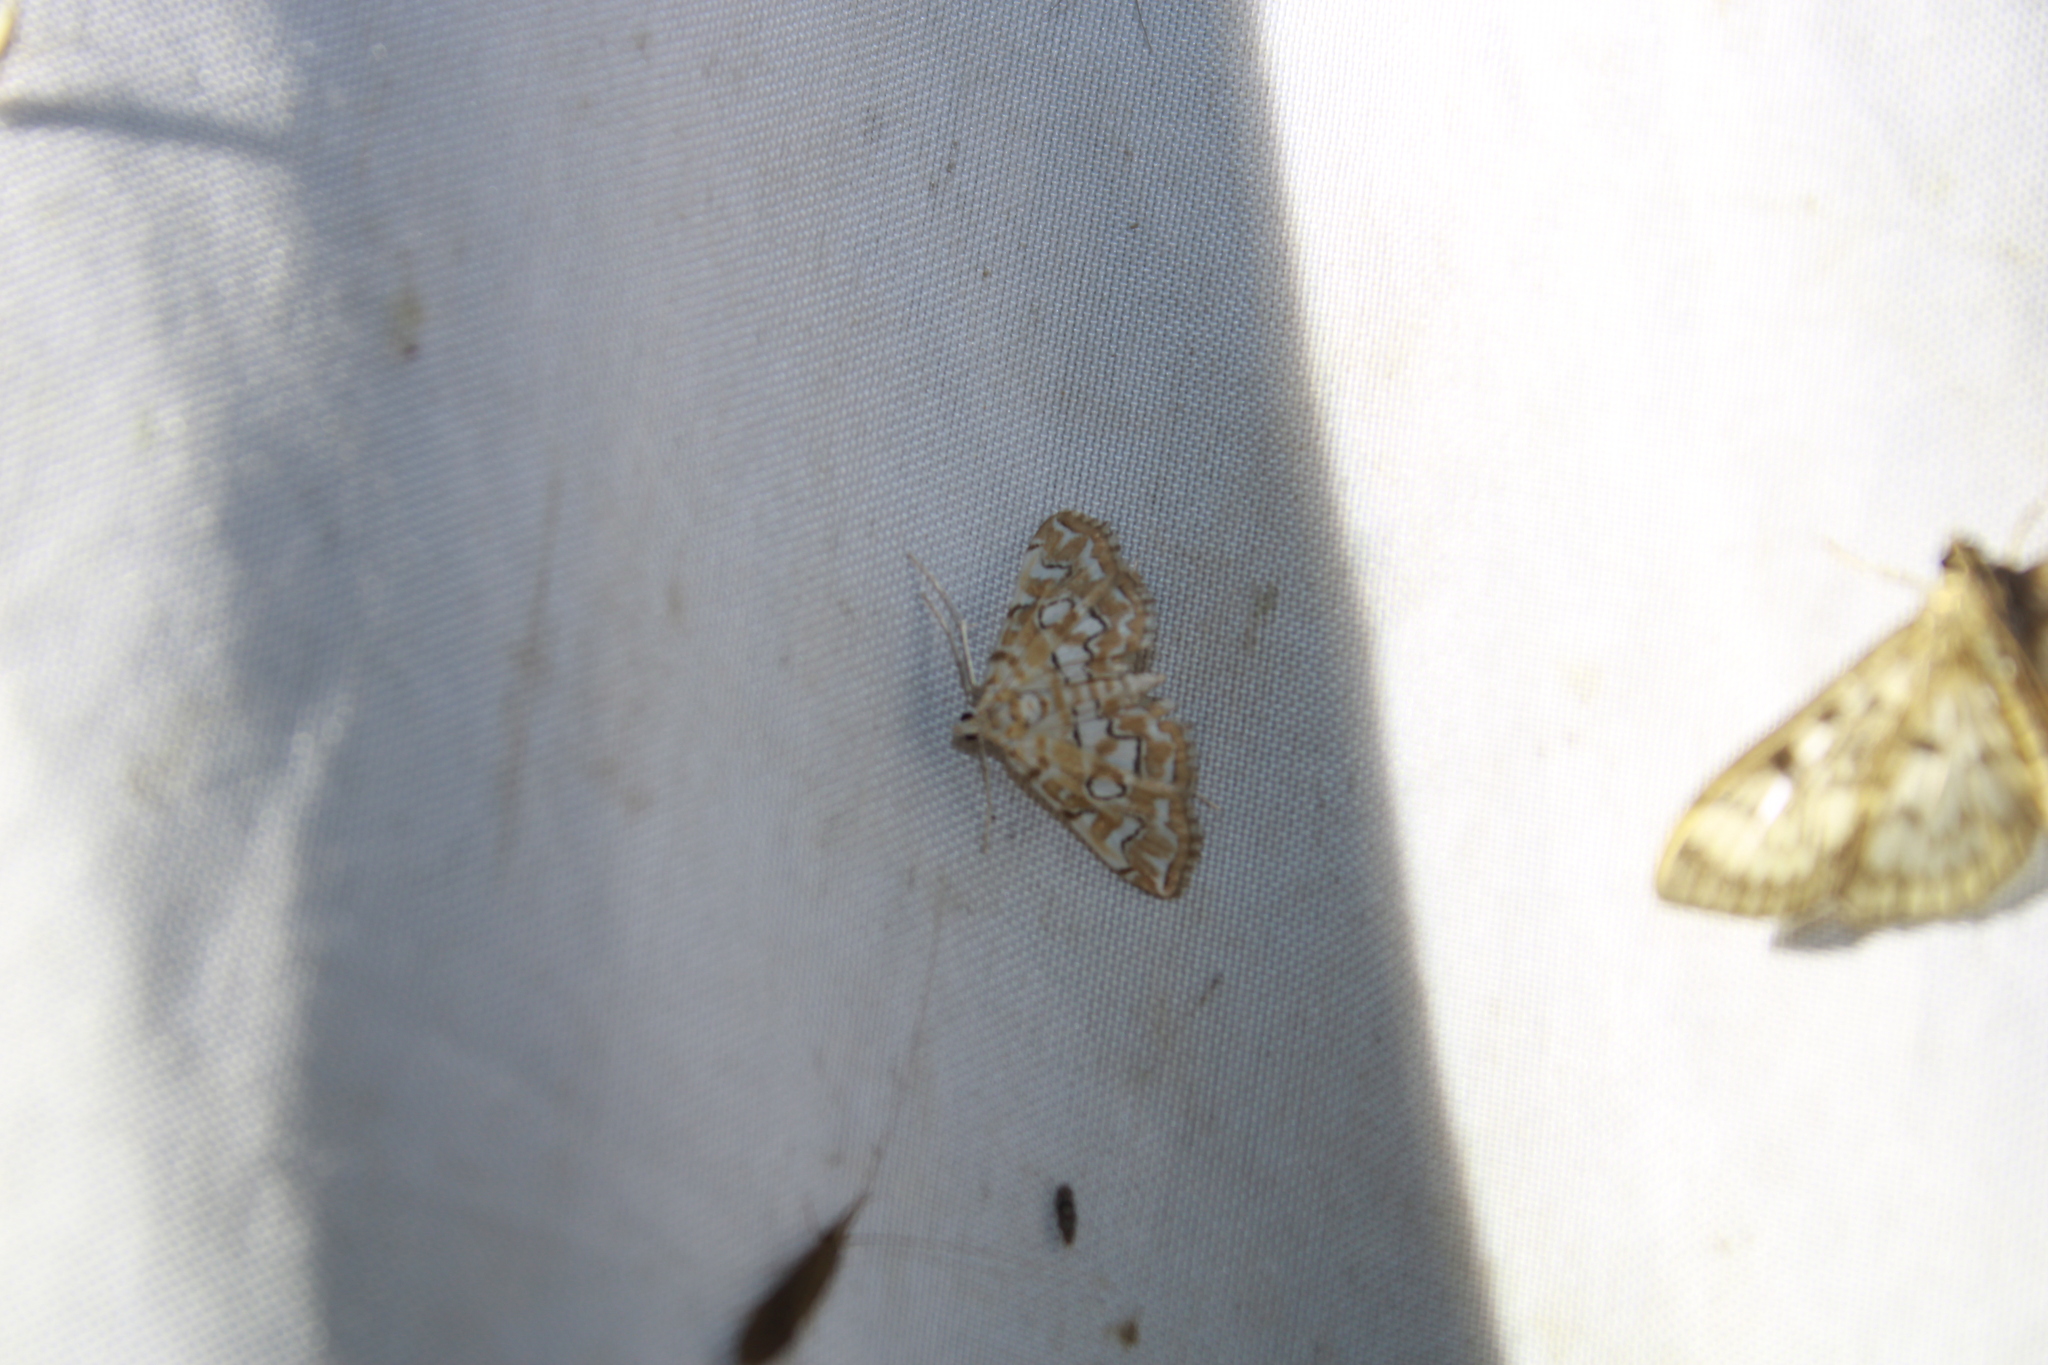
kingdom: Animalia
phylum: Arthropoda
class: Insecta
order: Lepidoptera
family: Crambidae
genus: Elophila
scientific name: Elophila icciusalis
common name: Pondside pyralid moth
